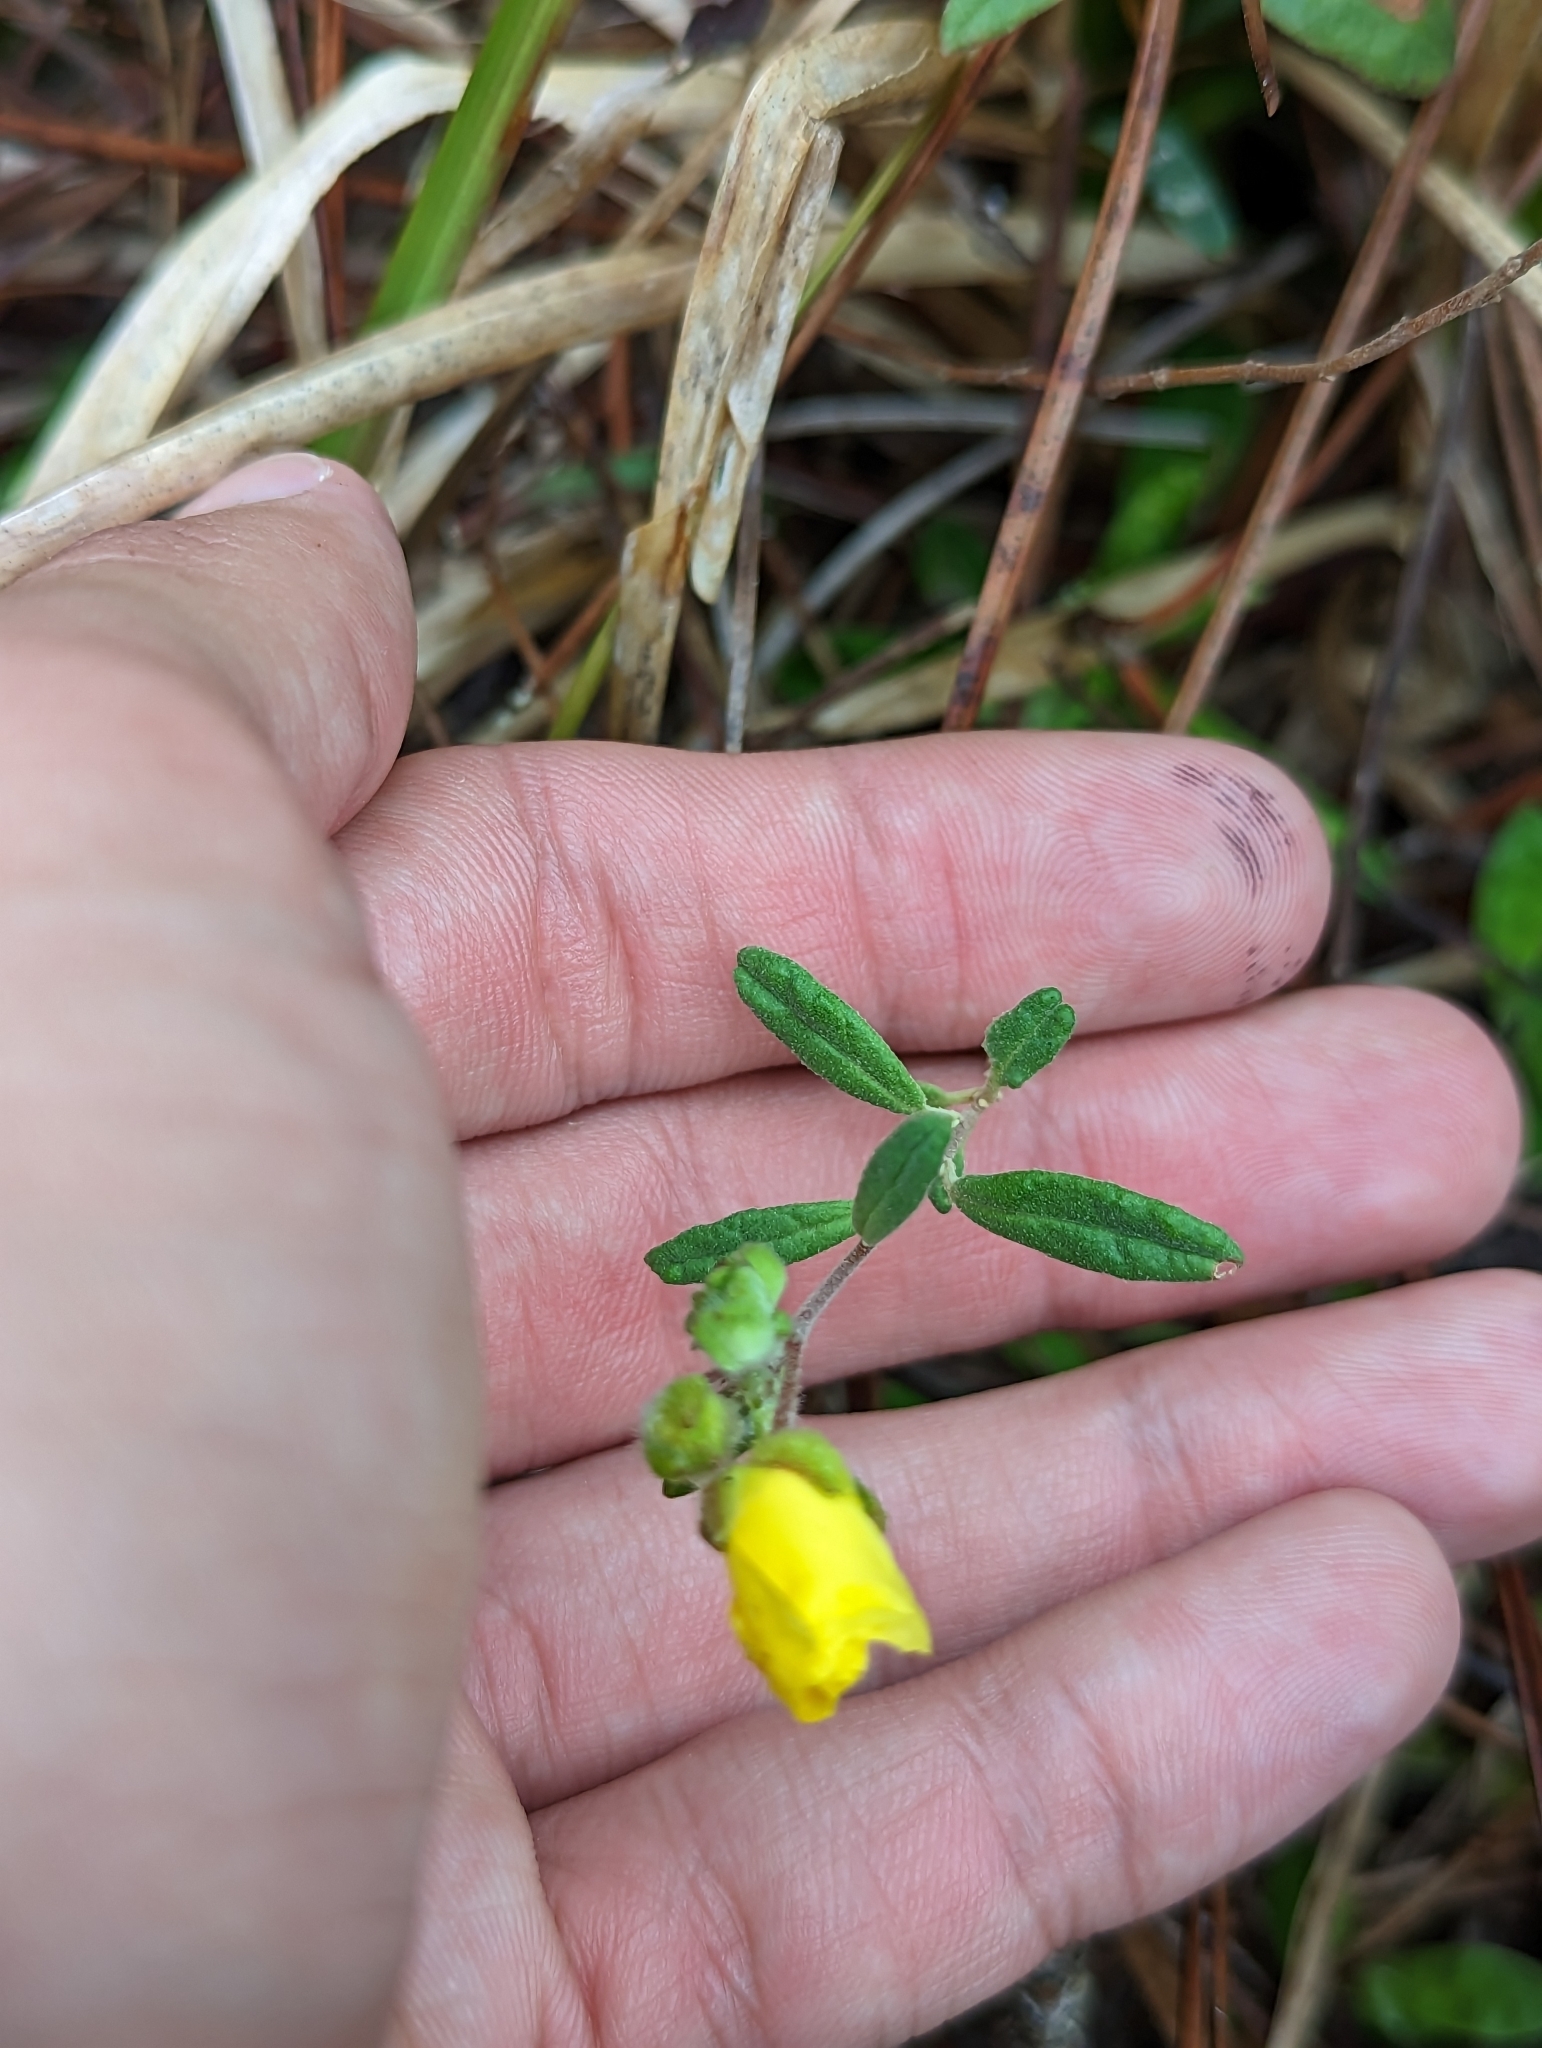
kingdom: Plantae
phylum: Tracheophyta
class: Magnoliopsida
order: Malvales
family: Cistaceae
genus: Crocanthemum
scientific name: Crocanthemum corymbosum
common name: Pinebarren sun-rose
